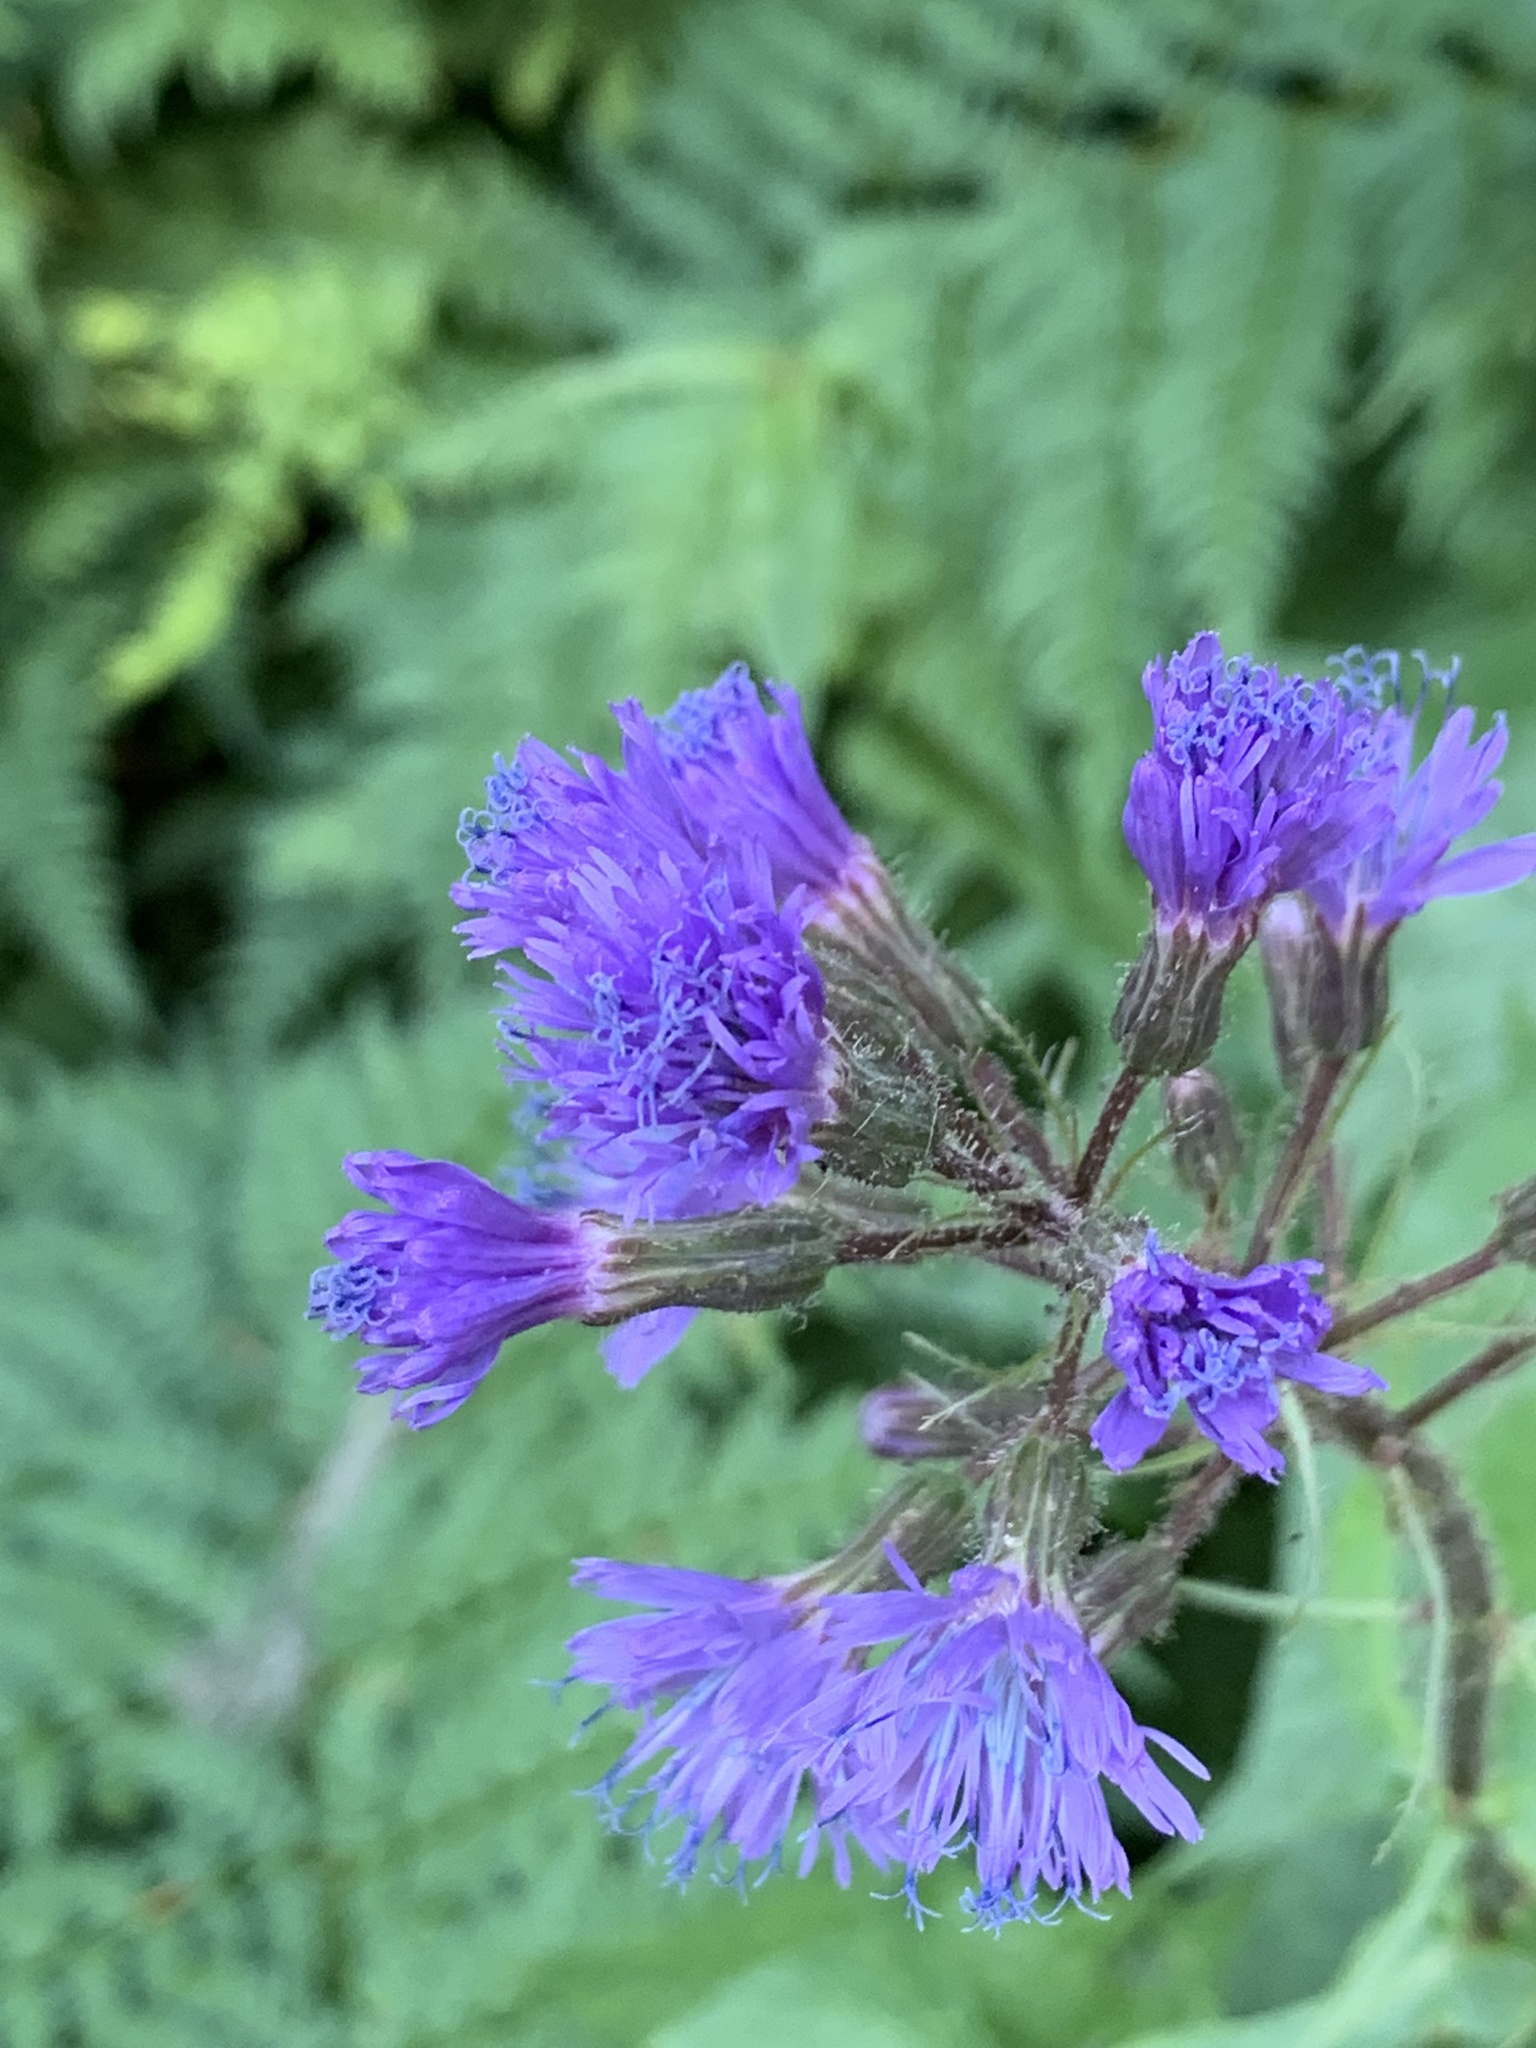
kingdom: Plantae
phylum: Tracheophyta
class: Magnoliopsida
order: Asterales
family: Asteraceae
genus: Cicerbita
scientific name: Cicerbita alpina
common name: Alpine blue-sow-thistle
